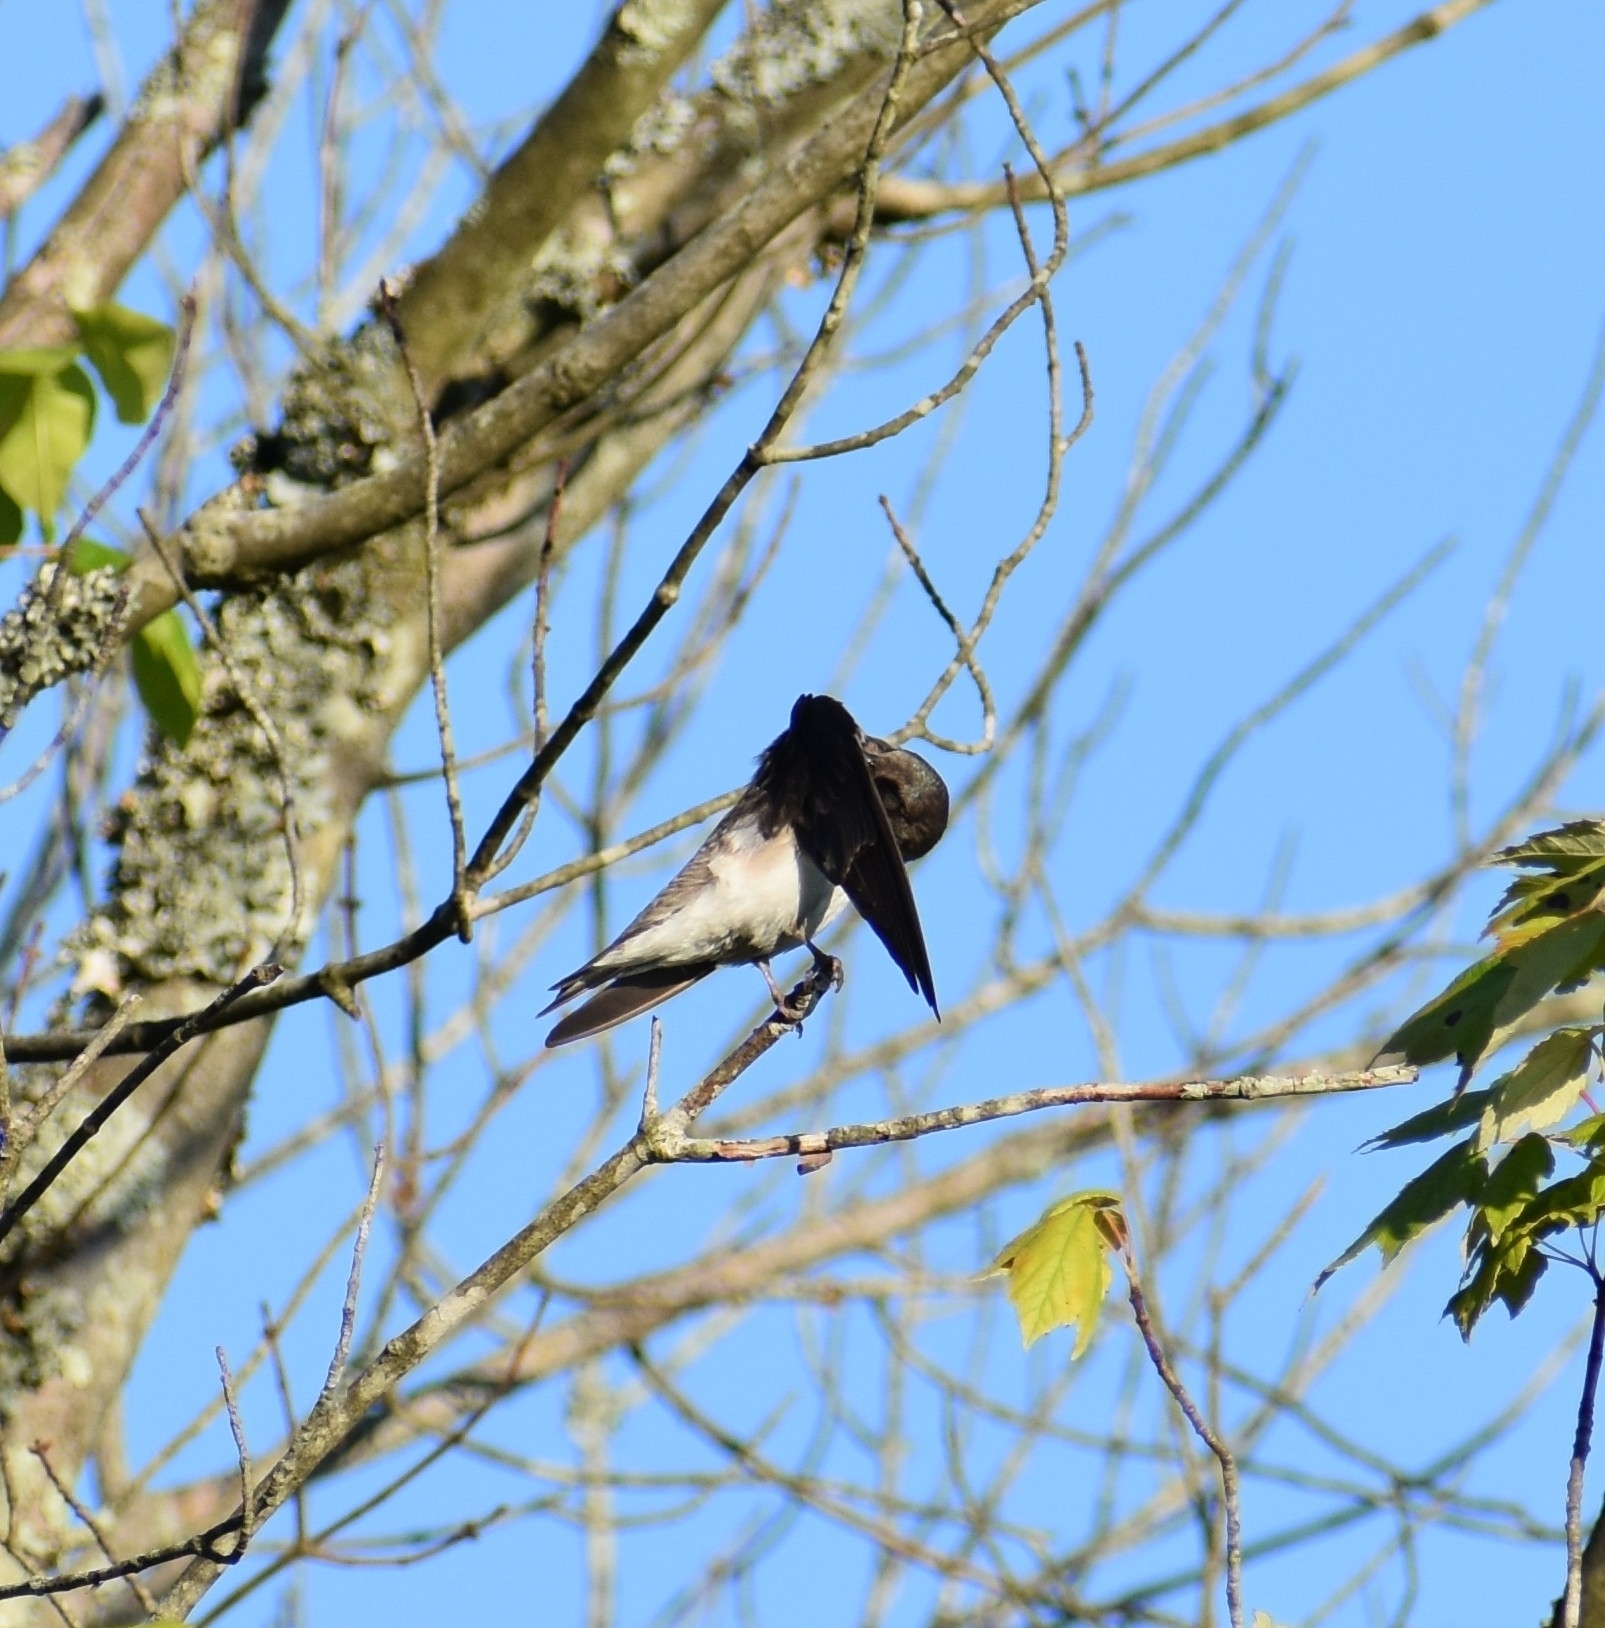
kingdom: Animalia
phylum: Chordata
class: Aves
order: Passeriformes
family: Hirundinidae
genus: Tachycineta
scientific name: Tachycineta bicolor
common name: Tree swallow
